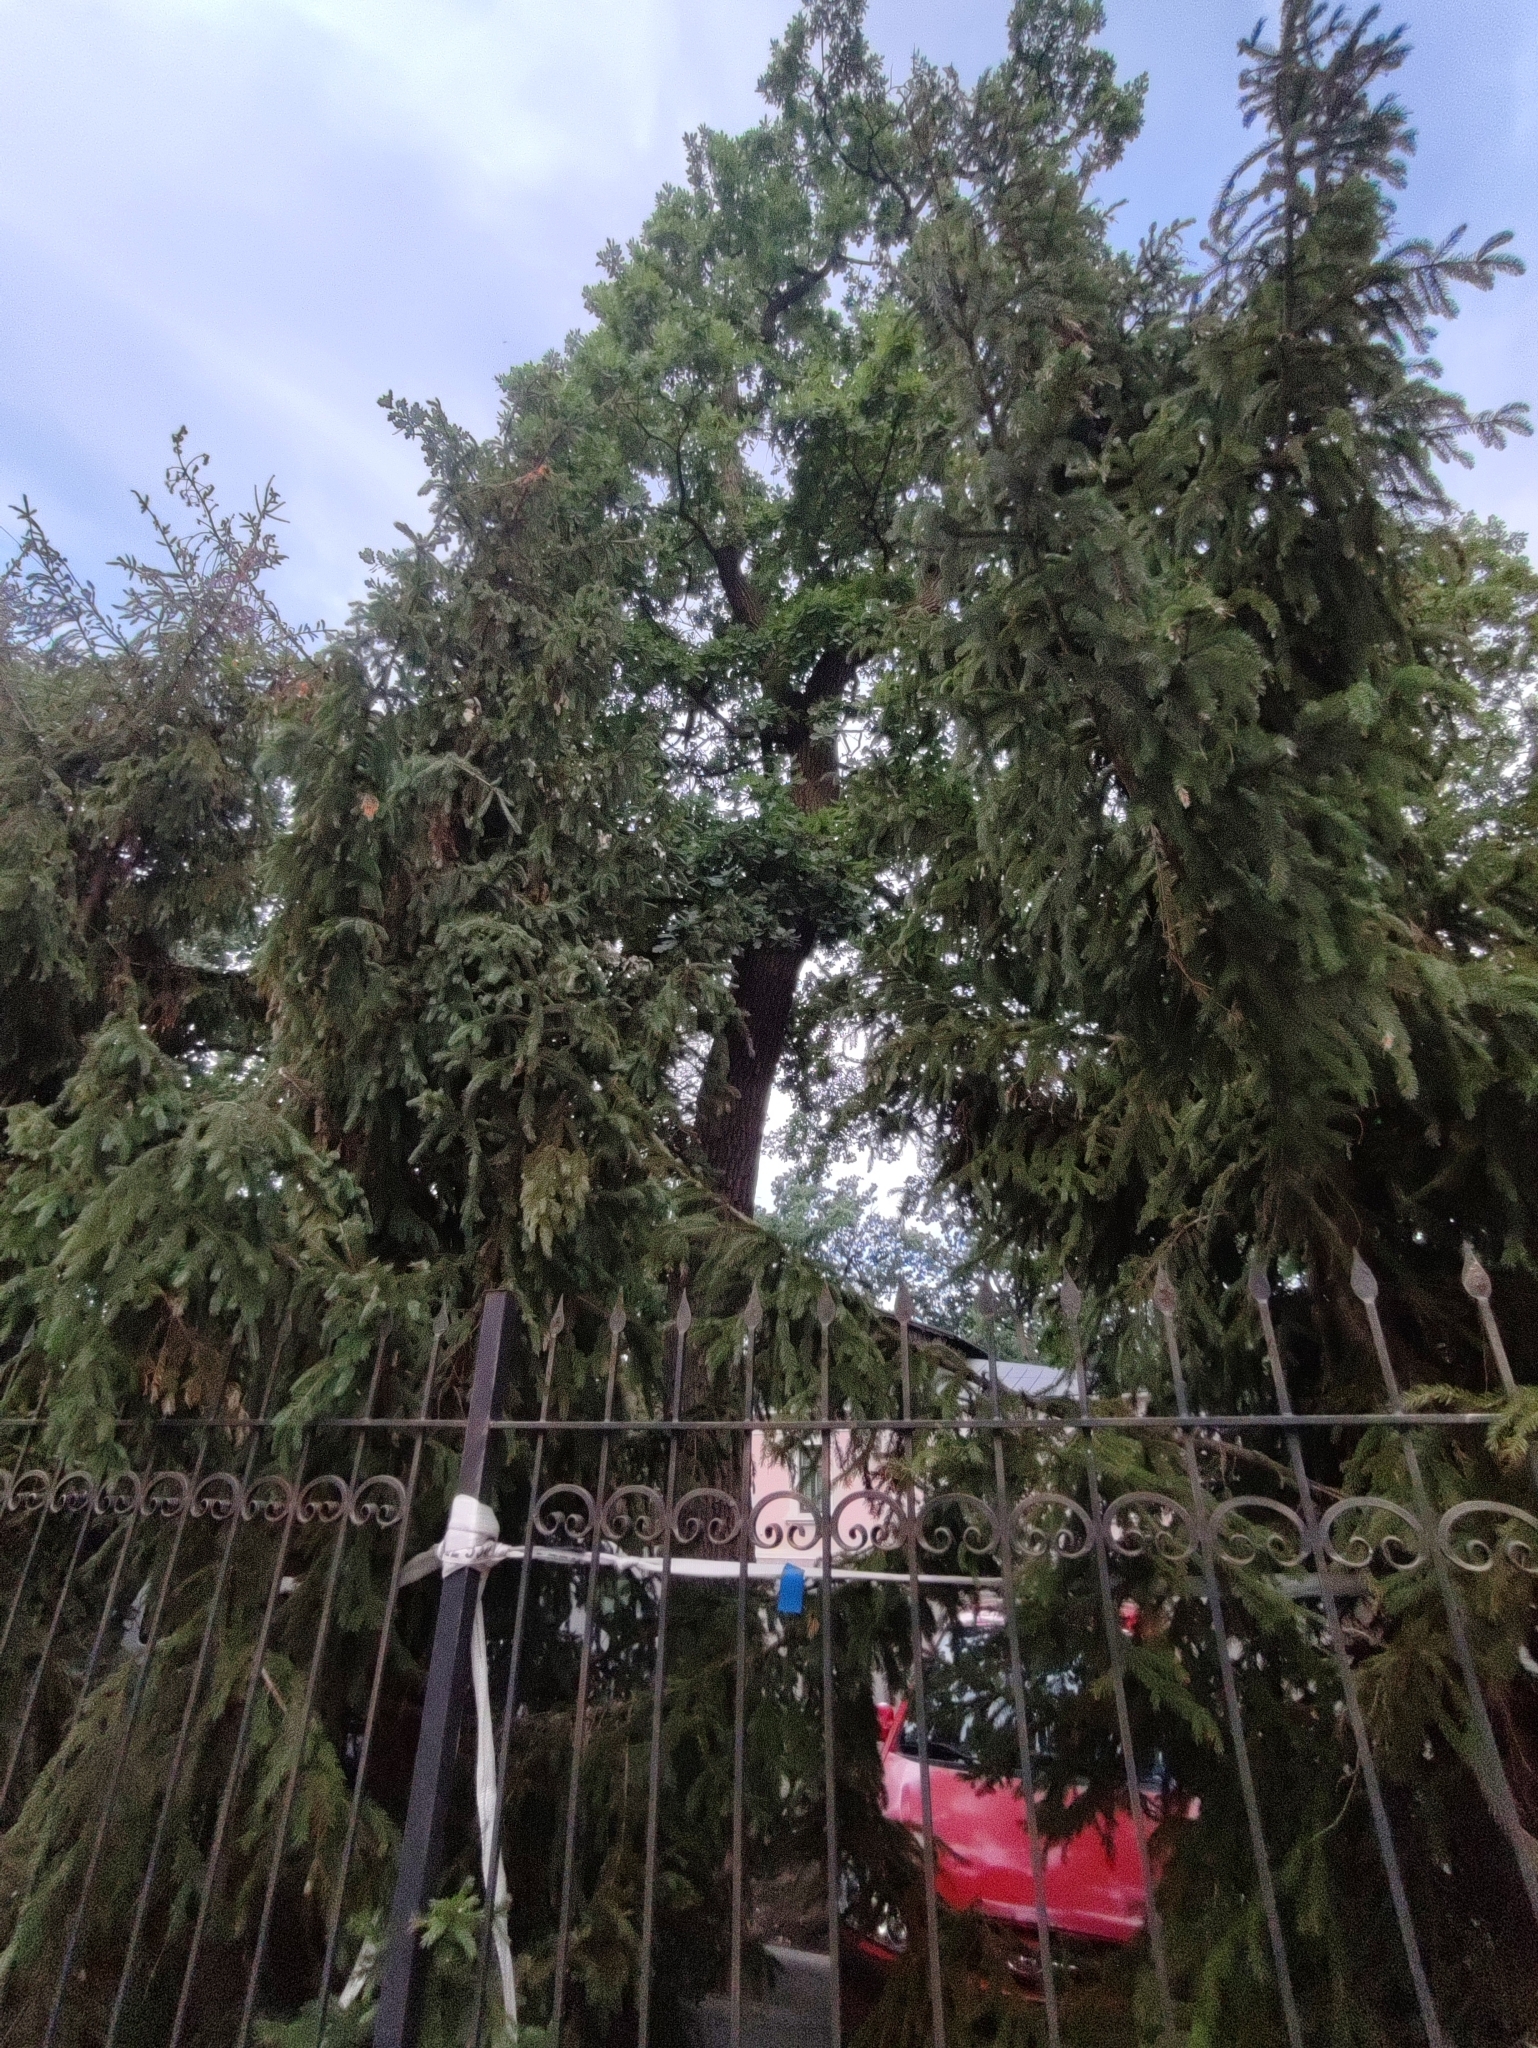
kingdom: Plantae
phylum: Tracheophyta
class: Magnoliopsida
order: Fagales
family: Fagaceae
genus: Quercus
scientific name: Quercus robur
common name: Pedunculate oak
